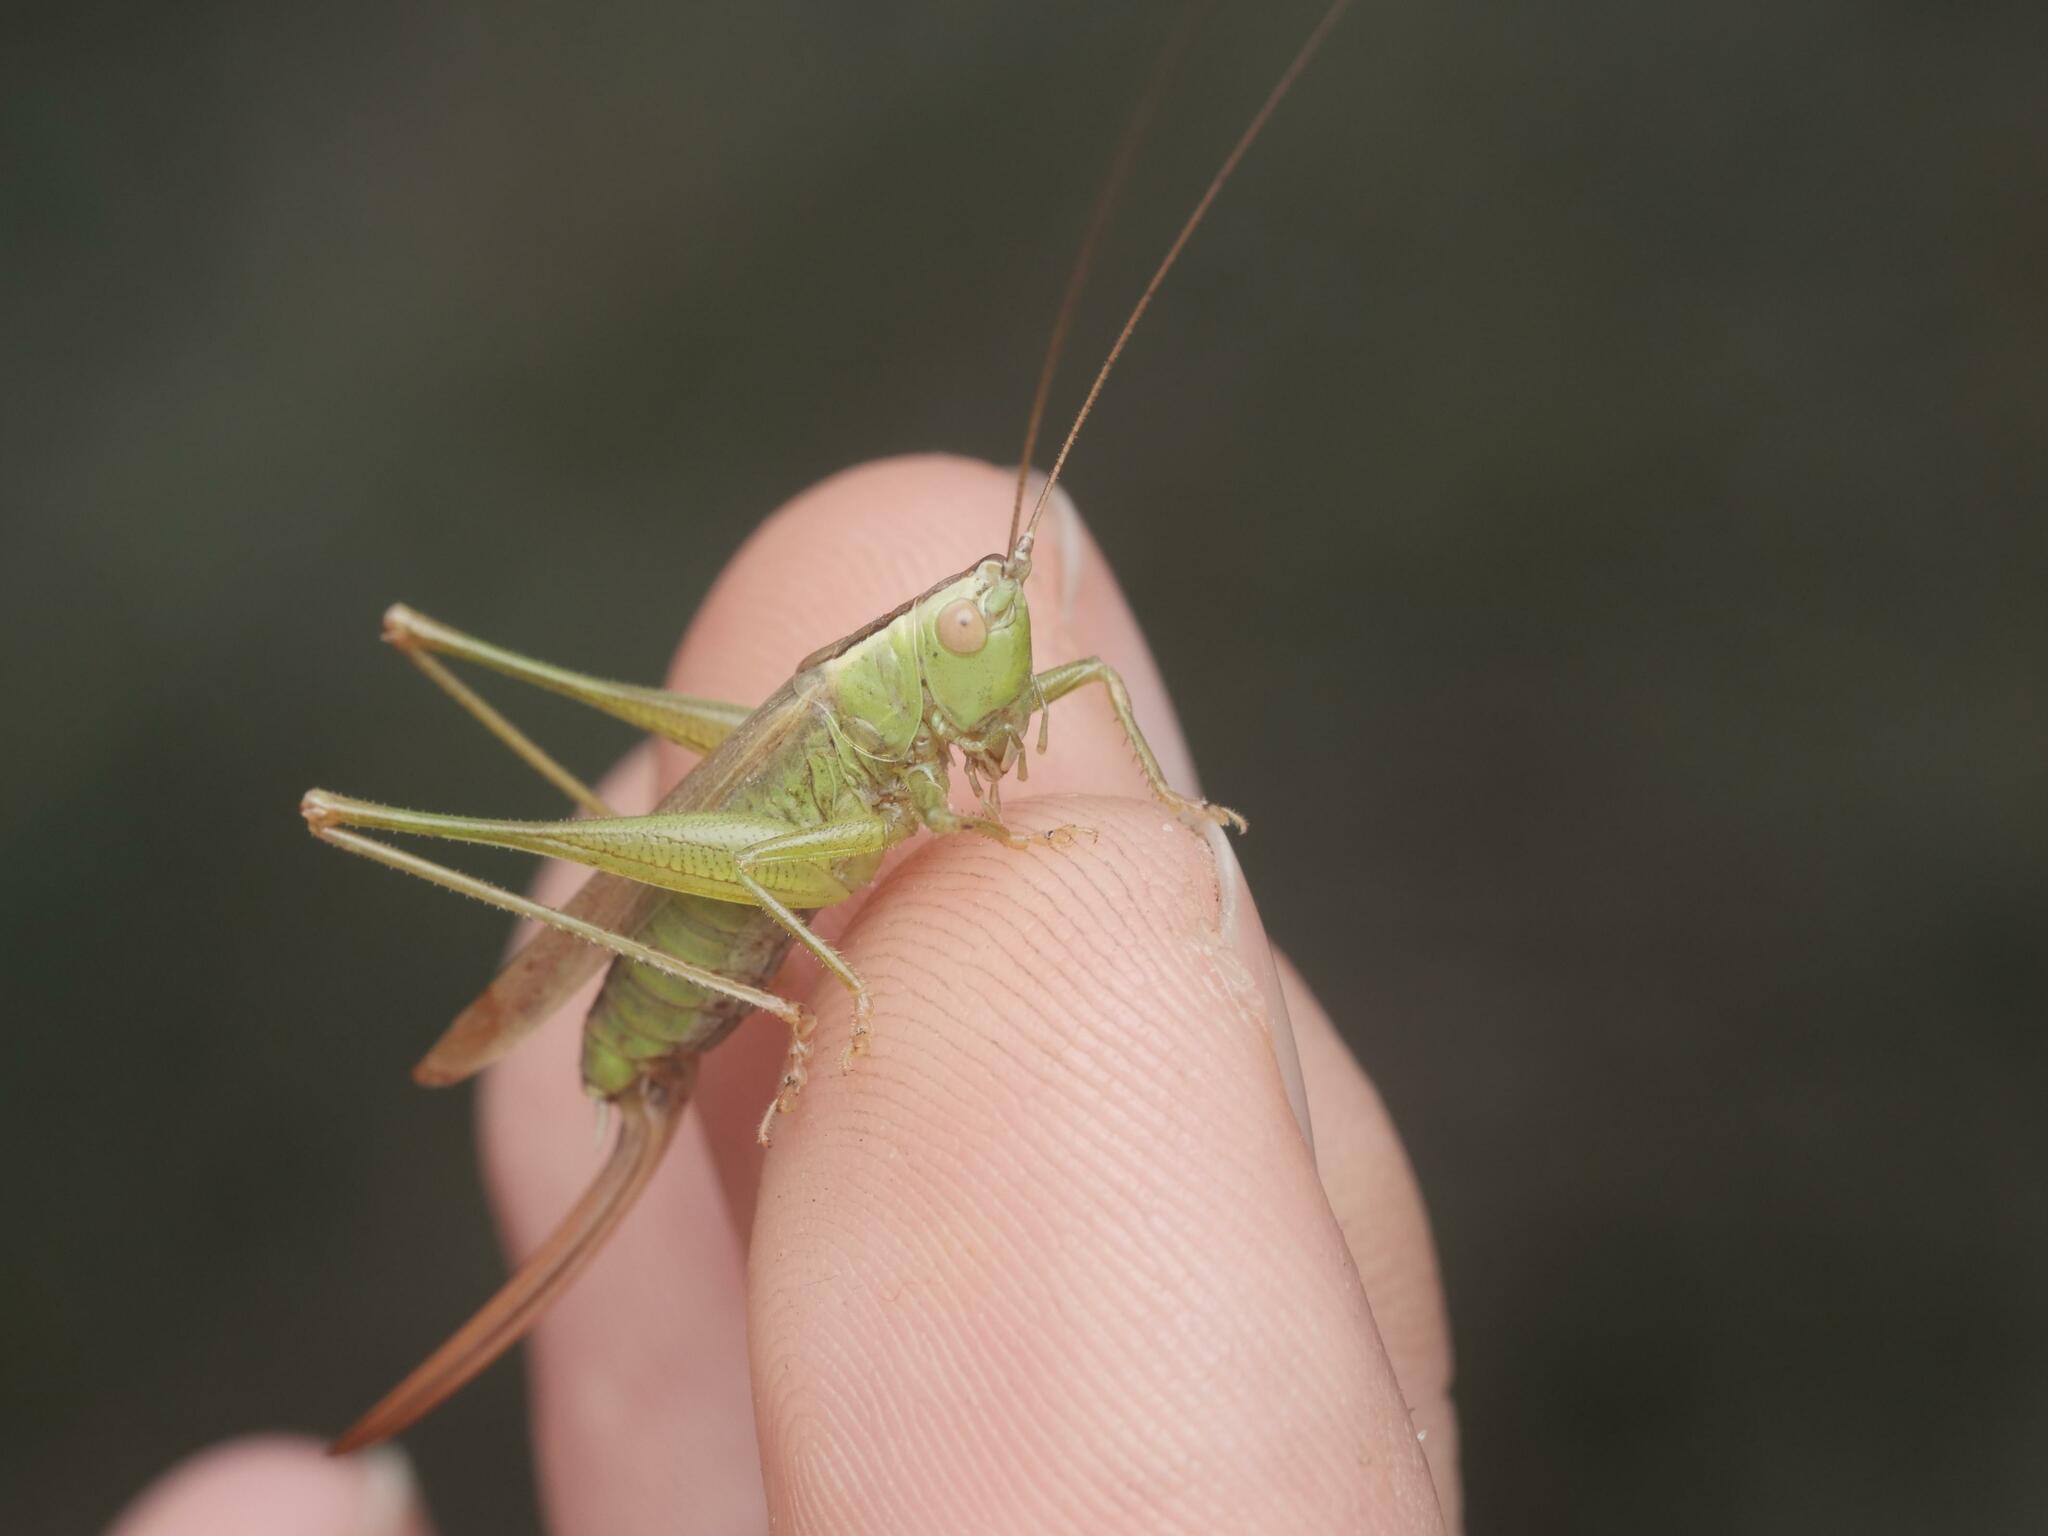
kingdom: Animalia
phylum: Arthropoda
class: Insecta
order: Orthoptera
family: Tettigoniidae
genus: Conocephalus
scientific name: Conocephalus fuscus
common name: Long-winged conehead
